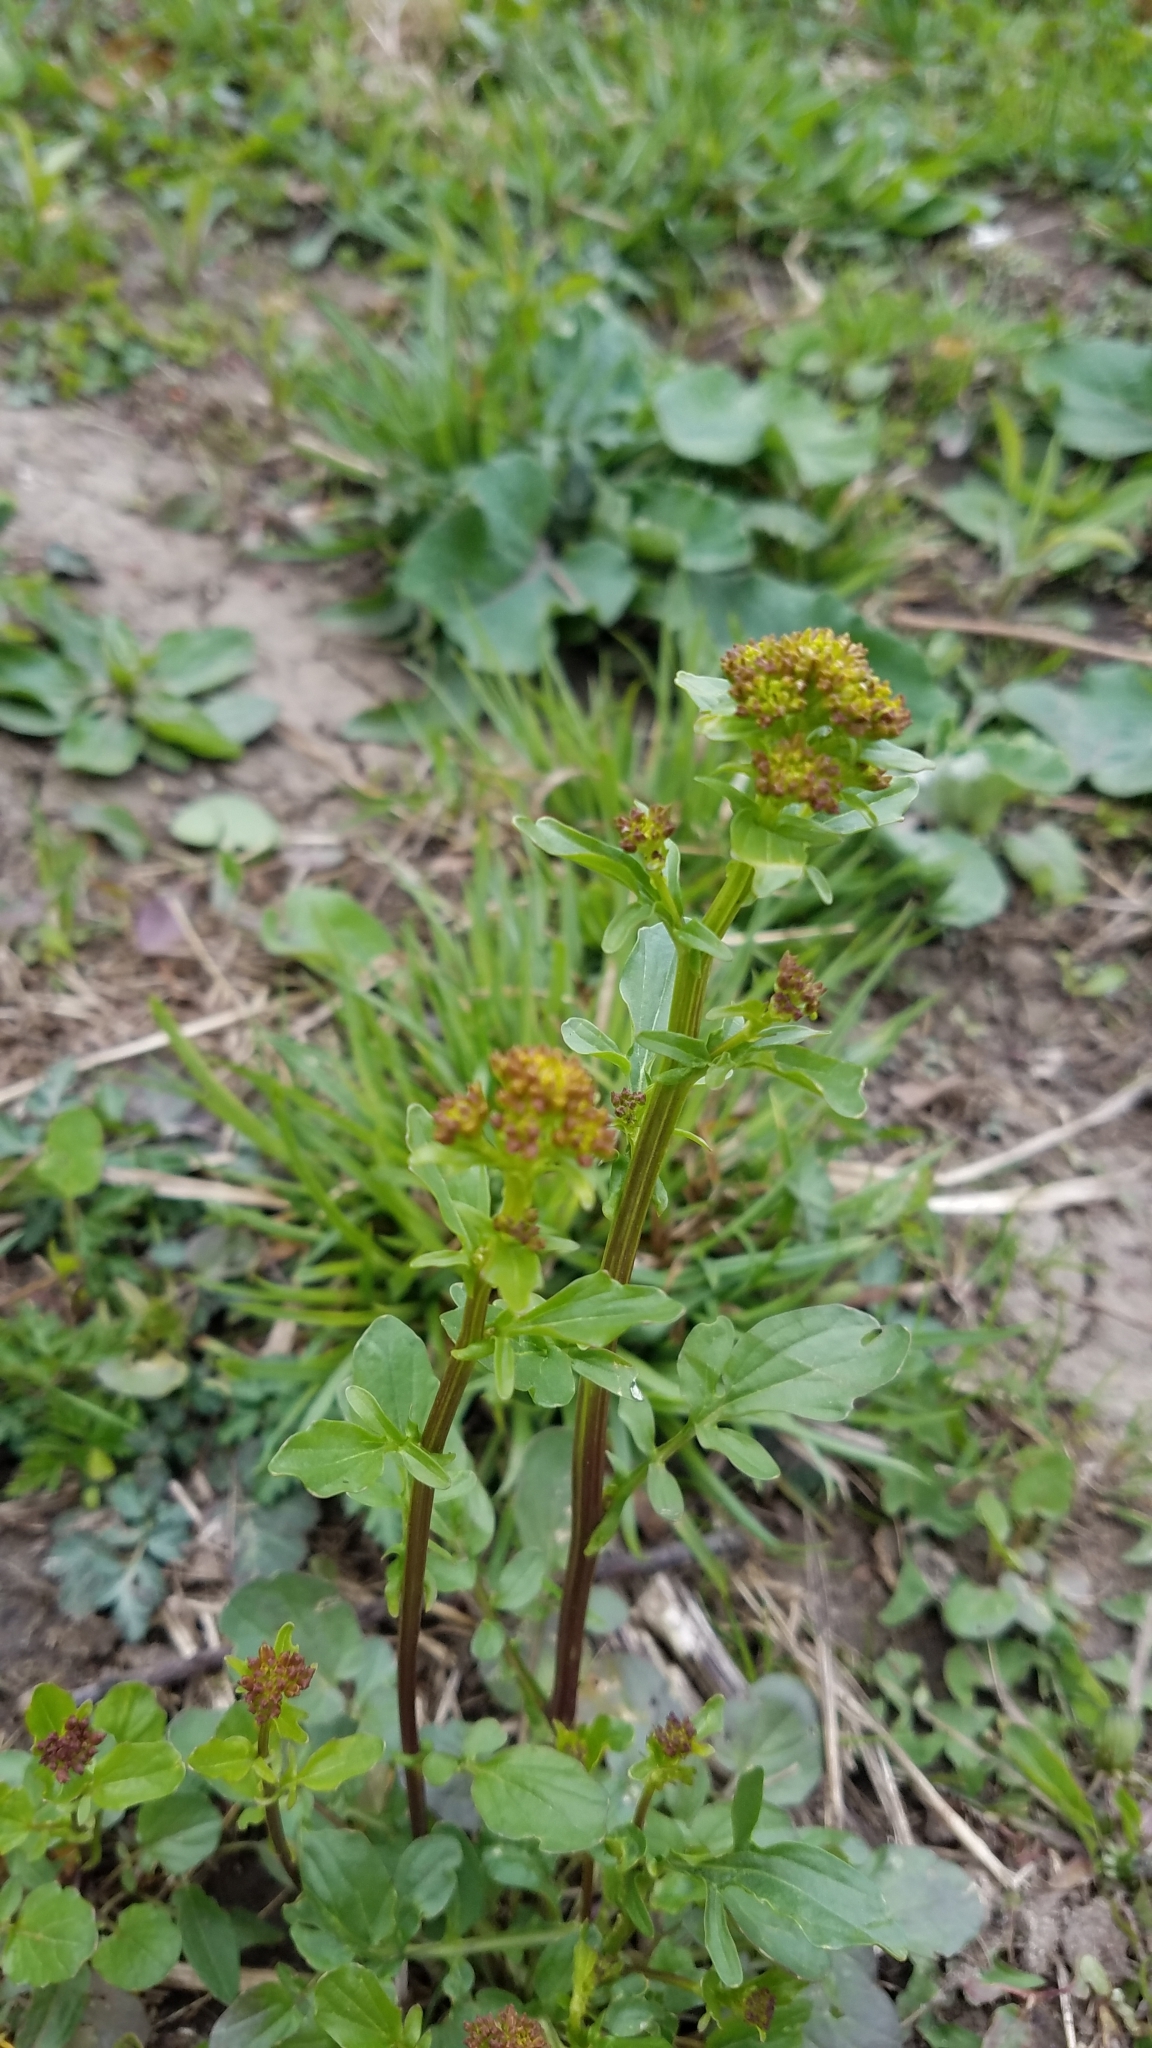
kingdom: Plantae
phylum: Tracheophyta
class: Magnoliopsida
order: Brassicales
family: Brassicaceae
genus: Barbarea
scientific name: Barbarea vulgaris
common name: Cressy-greens
